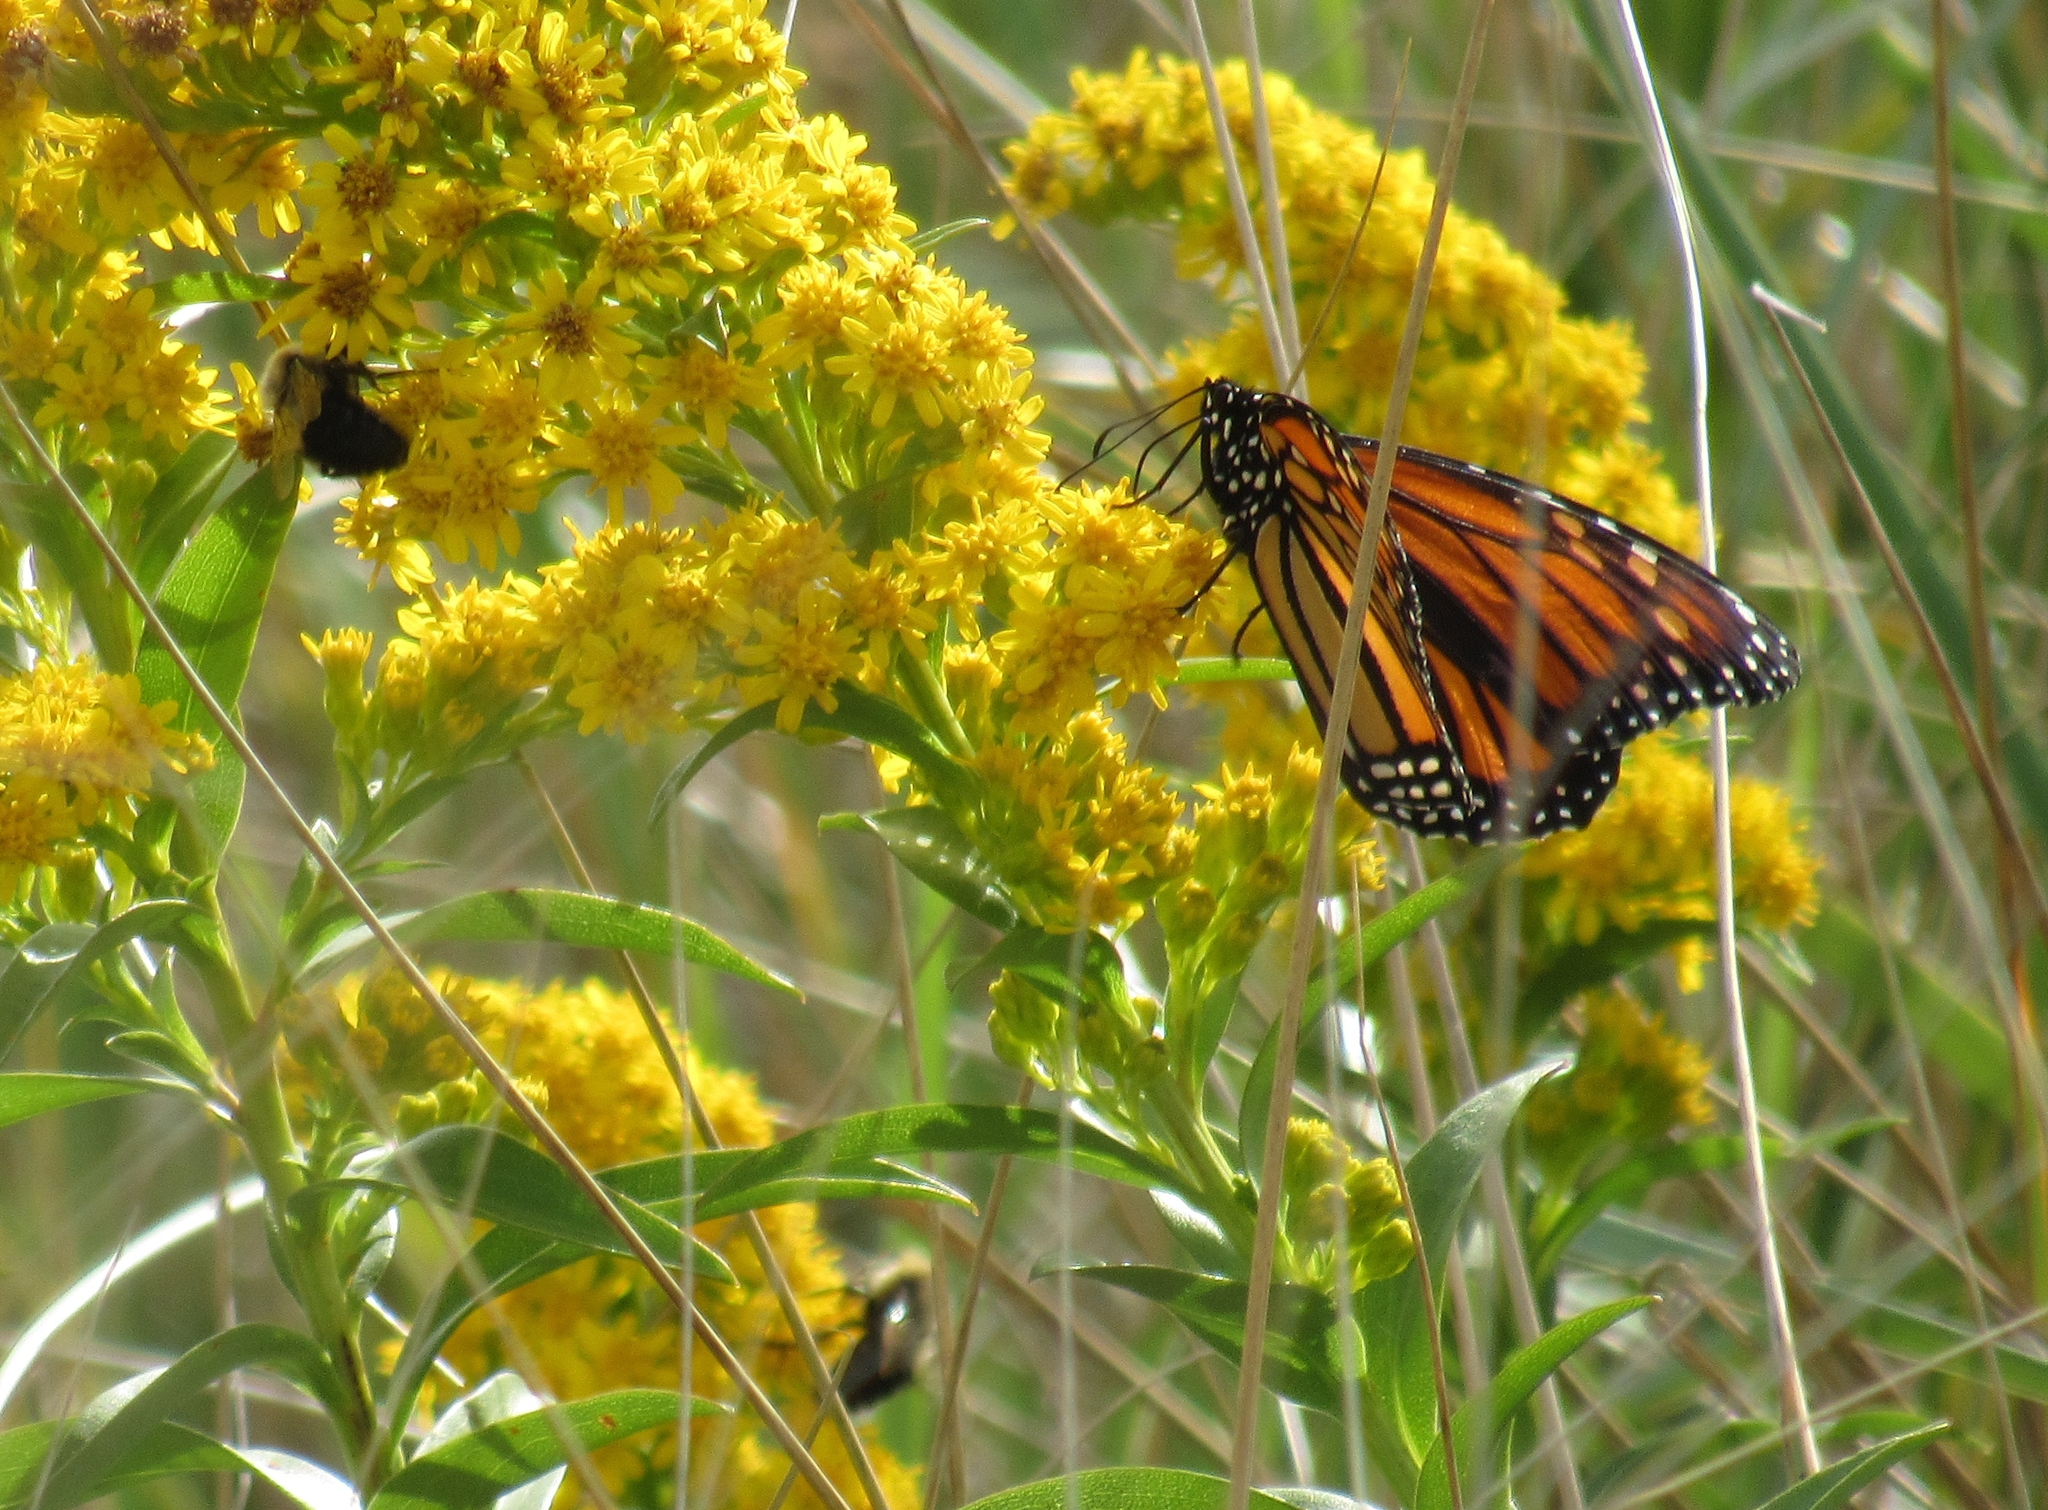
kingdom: Animalia
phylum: Arthropoda
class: Insecta
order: Lepidoptera
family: Nymphalidae
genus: Danaus
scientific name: Danaus plexippus
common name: Monarch
